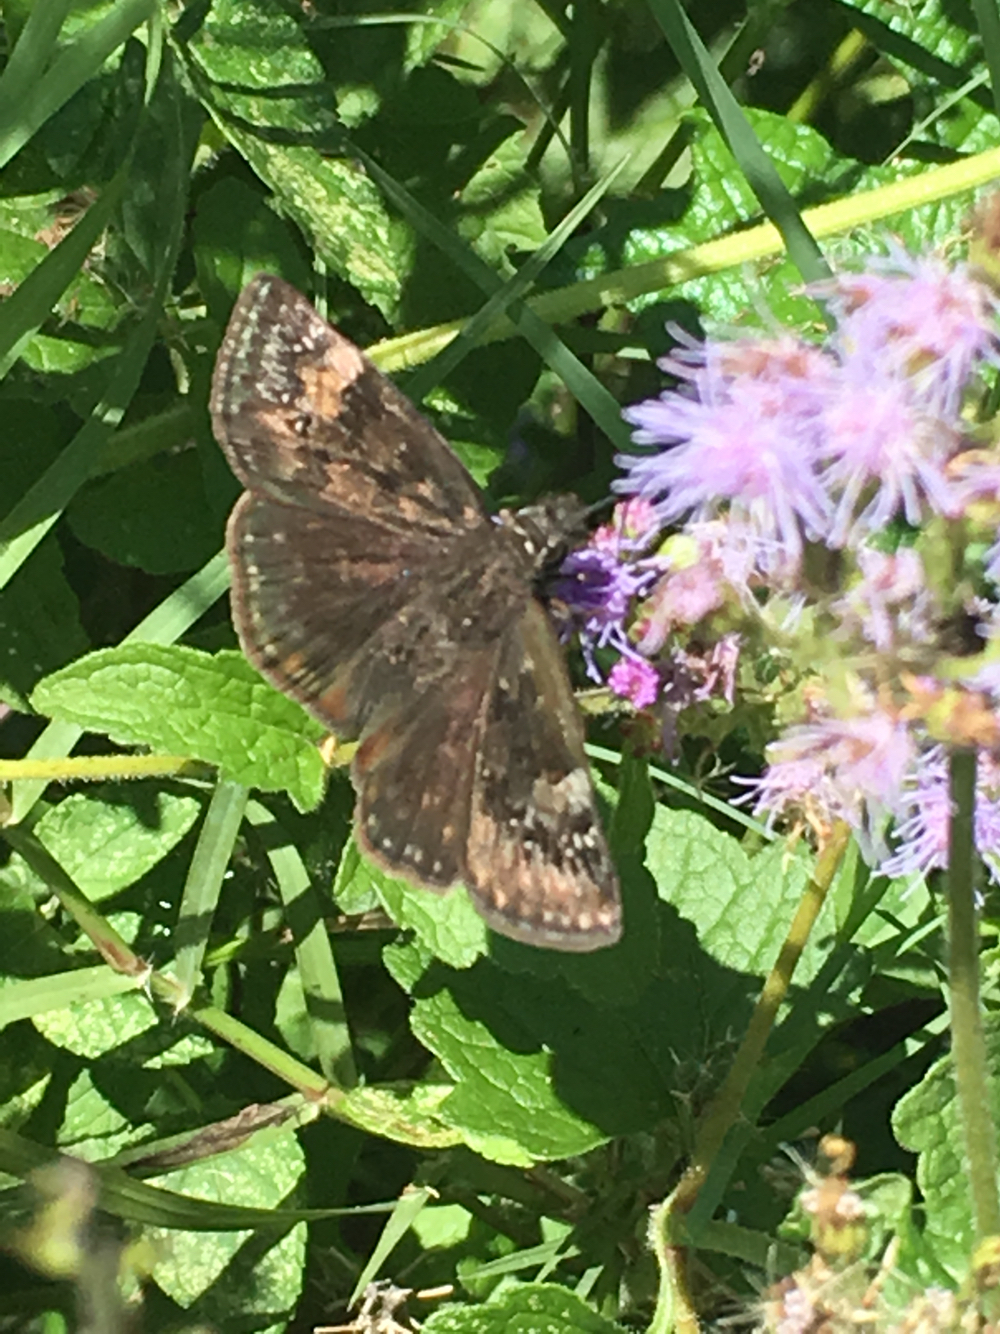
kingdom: Animalia
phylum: Arthropoda
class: Insecta
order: Lepidoptera
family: Hesperiidae
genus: Erynnis
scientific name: Erynnis horatius
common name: Horace's duskywing
